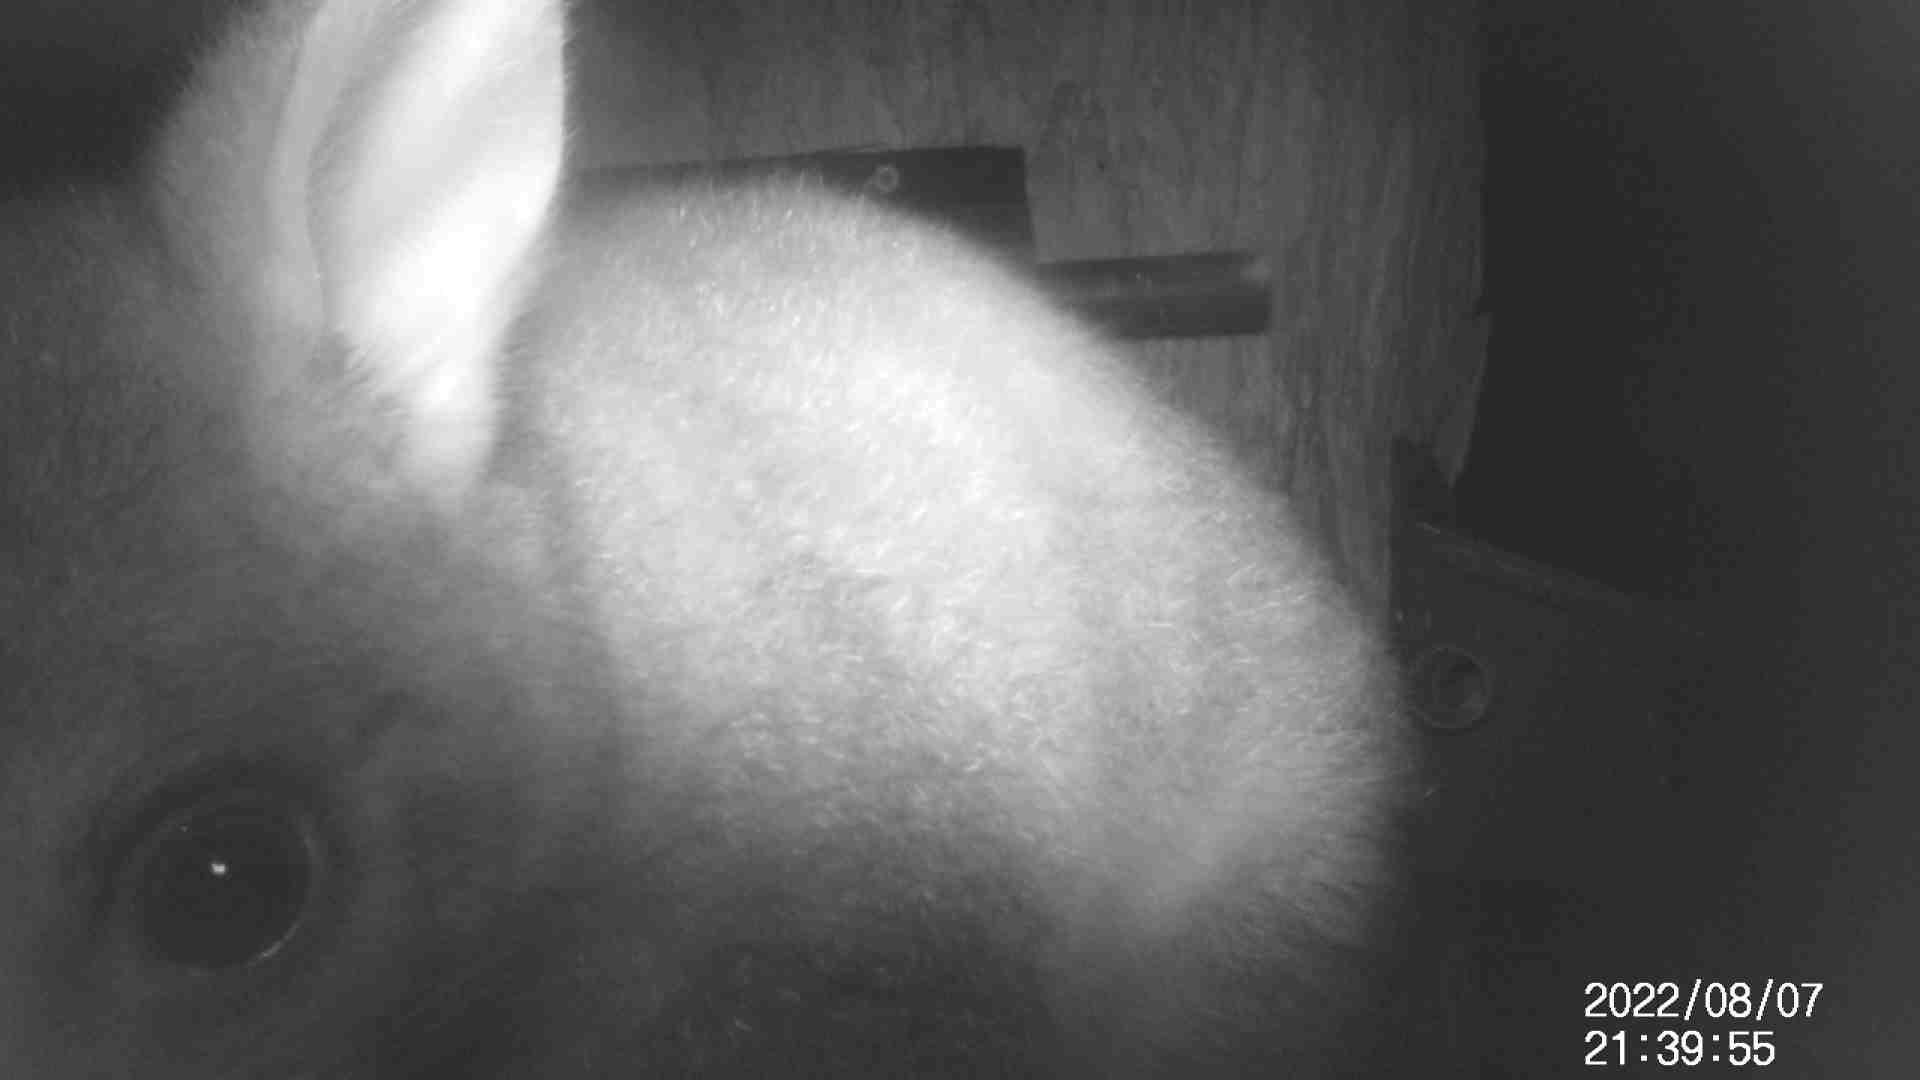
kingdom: Animalia
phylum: Chordata
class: Mammalia
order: Diprotodontia
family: Phalangeridae
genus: Trichosurus
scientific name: Trichosurus vulpecula
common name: Common brushtail
